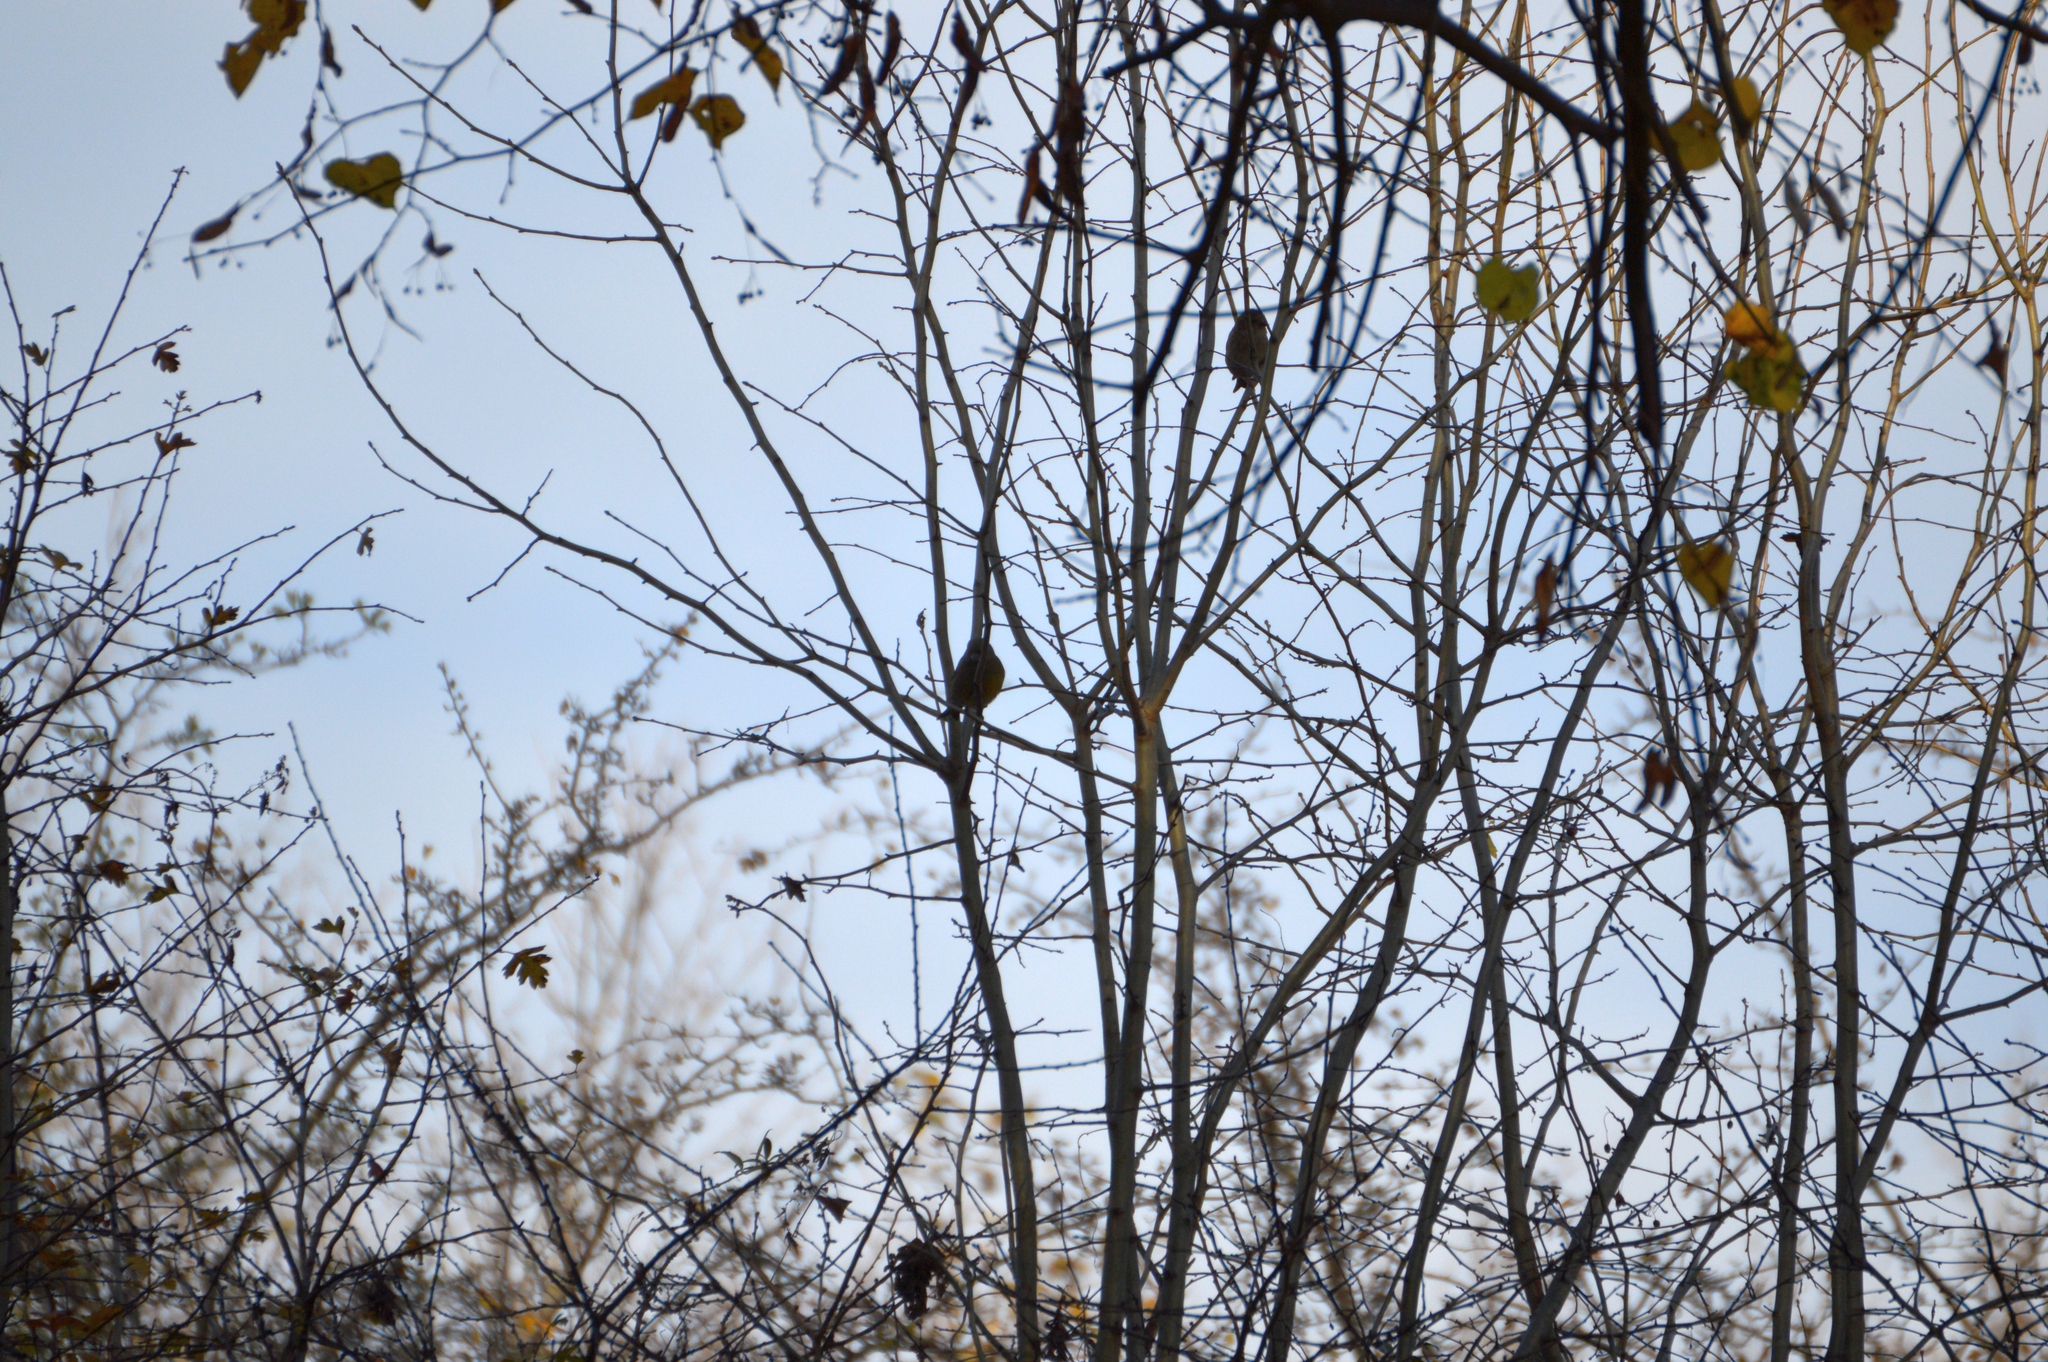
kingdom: Plantae
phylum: Tracheophyta
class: Liliopsida
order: Poales
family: Poaceae
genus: Chloris
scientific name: Chloris chloris
